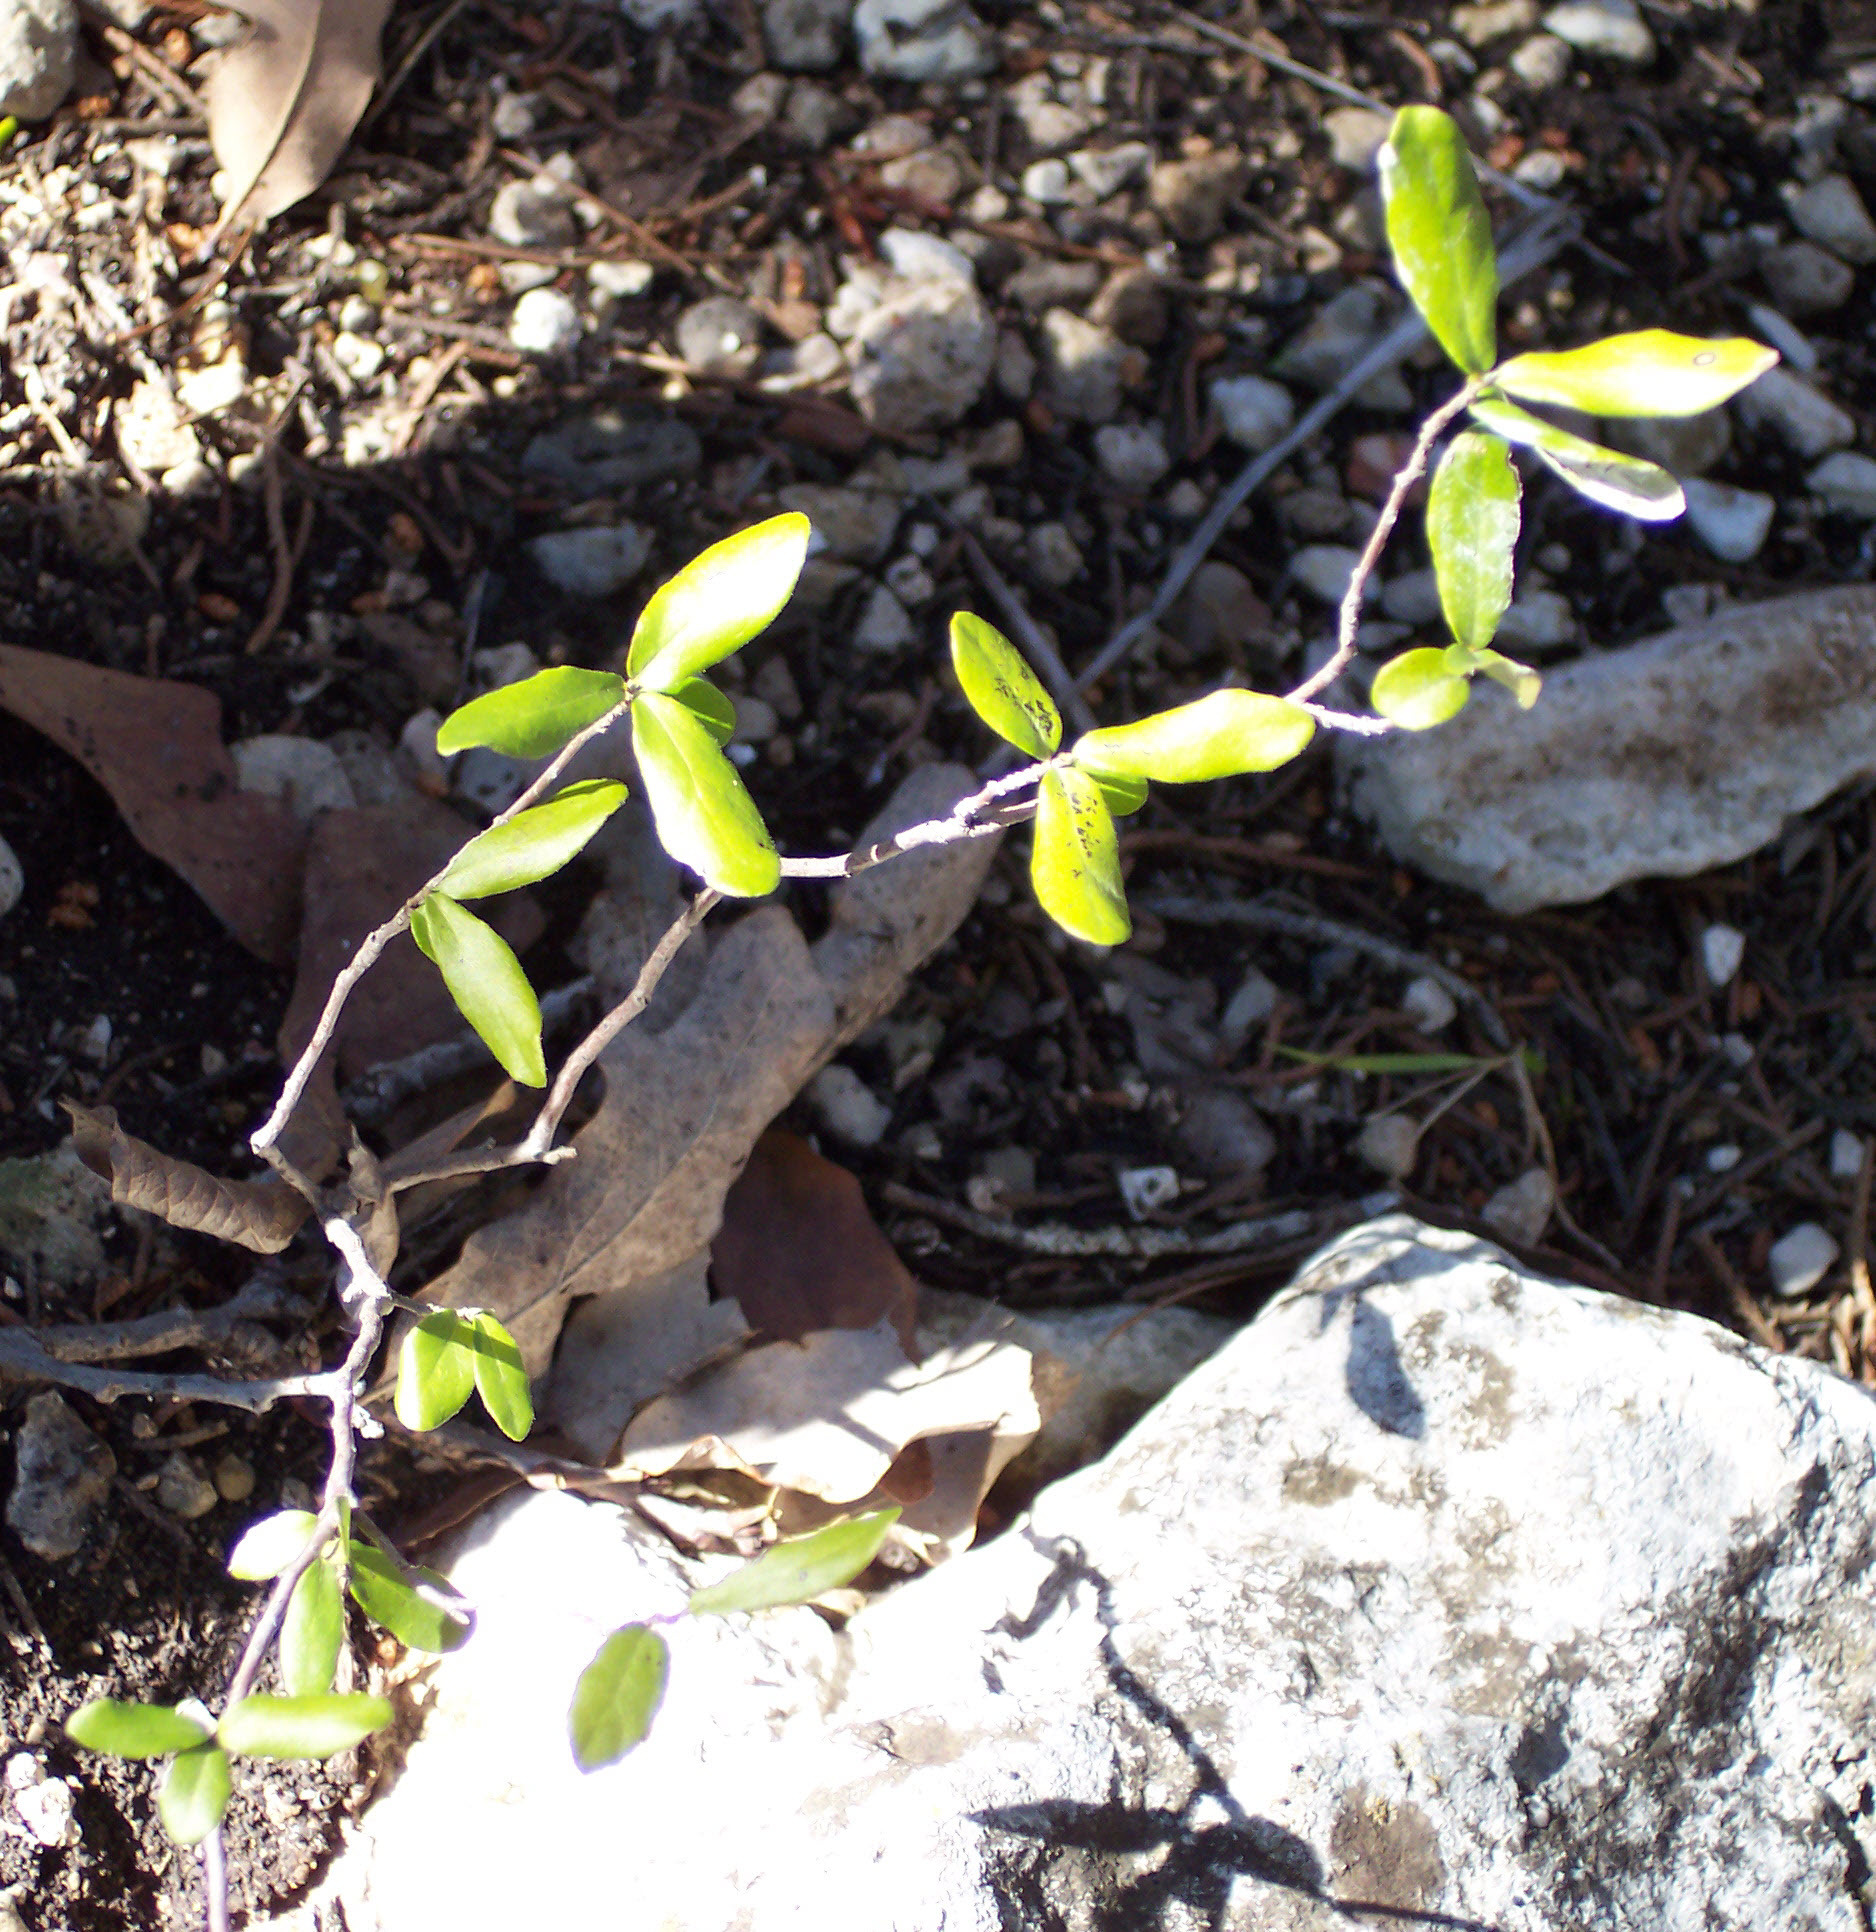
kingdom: Plantae
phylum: Tracheophyta
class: Magnoliopsida
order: Ericales
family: Ebenaceae
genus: Diospyros
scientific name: Diospyros texana
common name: Texas persimmon
